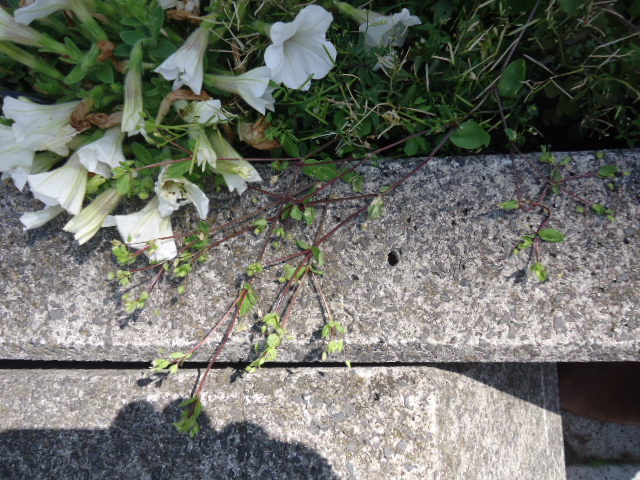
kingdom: Plantae
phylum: Tracheophyta
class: Magnoliopsida
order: Caryophyllales
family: Caryophyllaceae
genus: Stellaria
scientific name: Stellaria media
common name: Common chickweed
